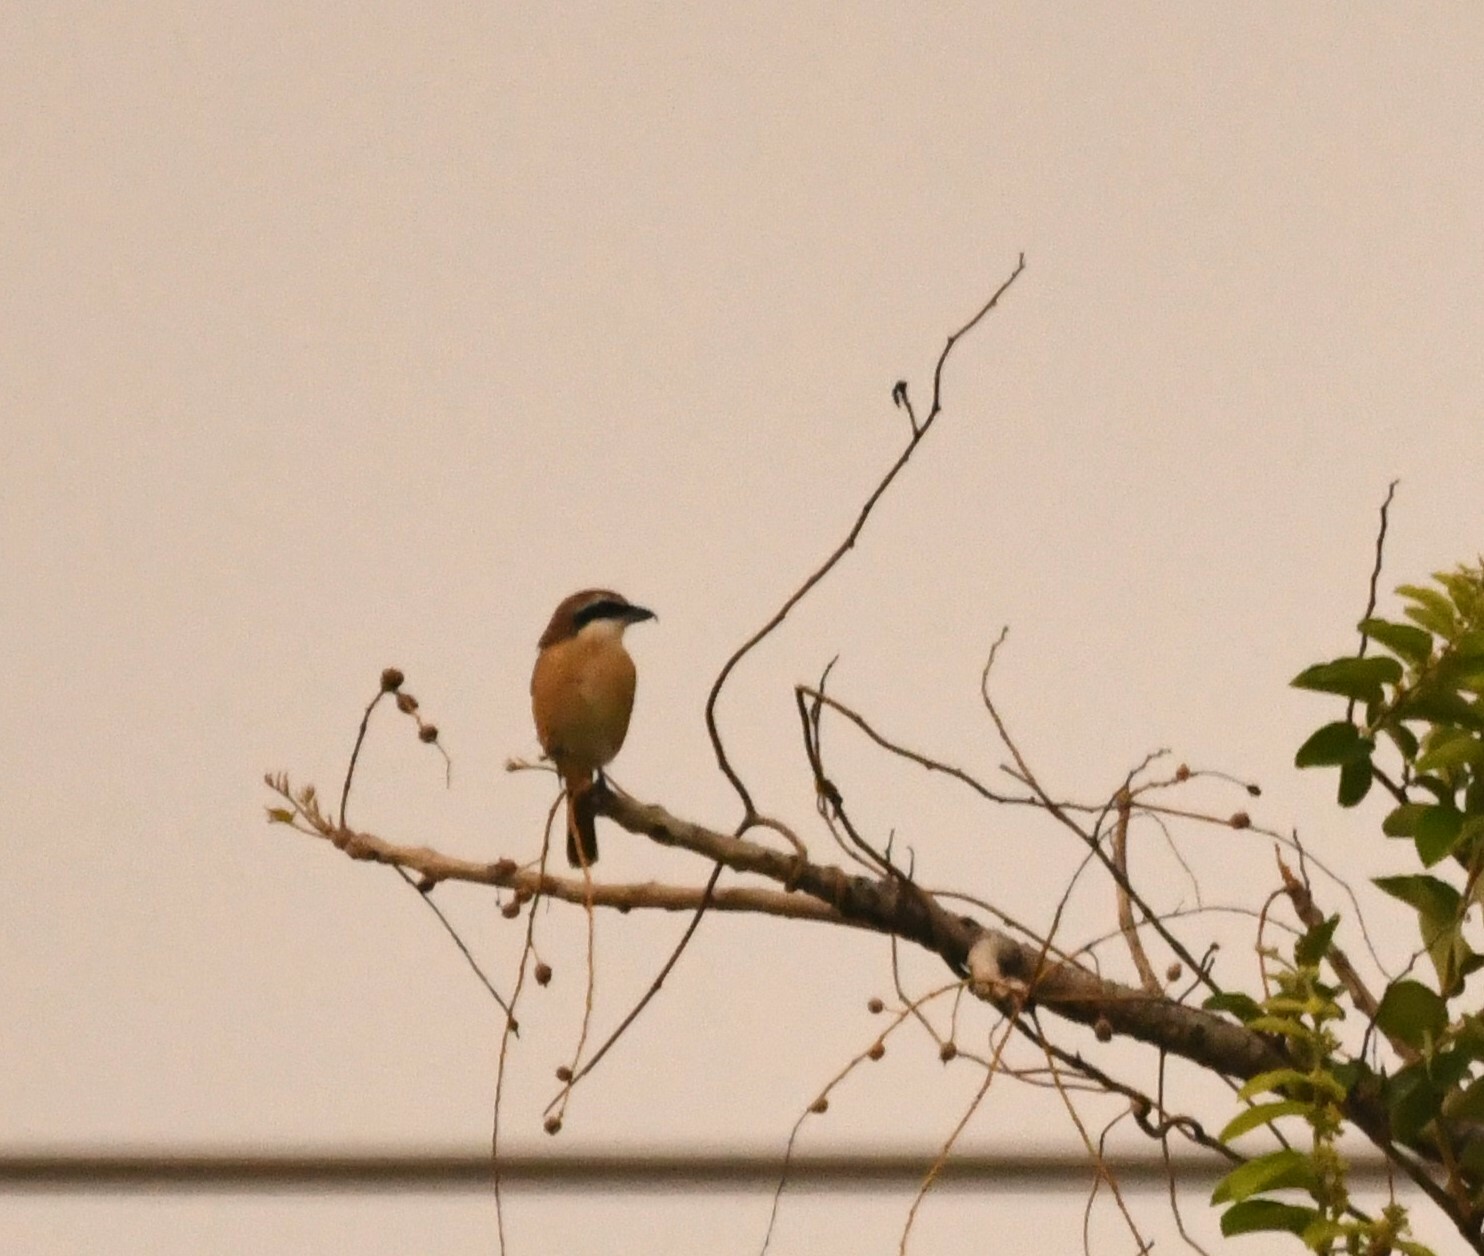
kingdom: Animalia
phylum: Chordata
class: Aves
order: Passeriformes
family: Laniidae
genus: Lanius
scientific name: Lanius cristatus
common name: Brown shrike
